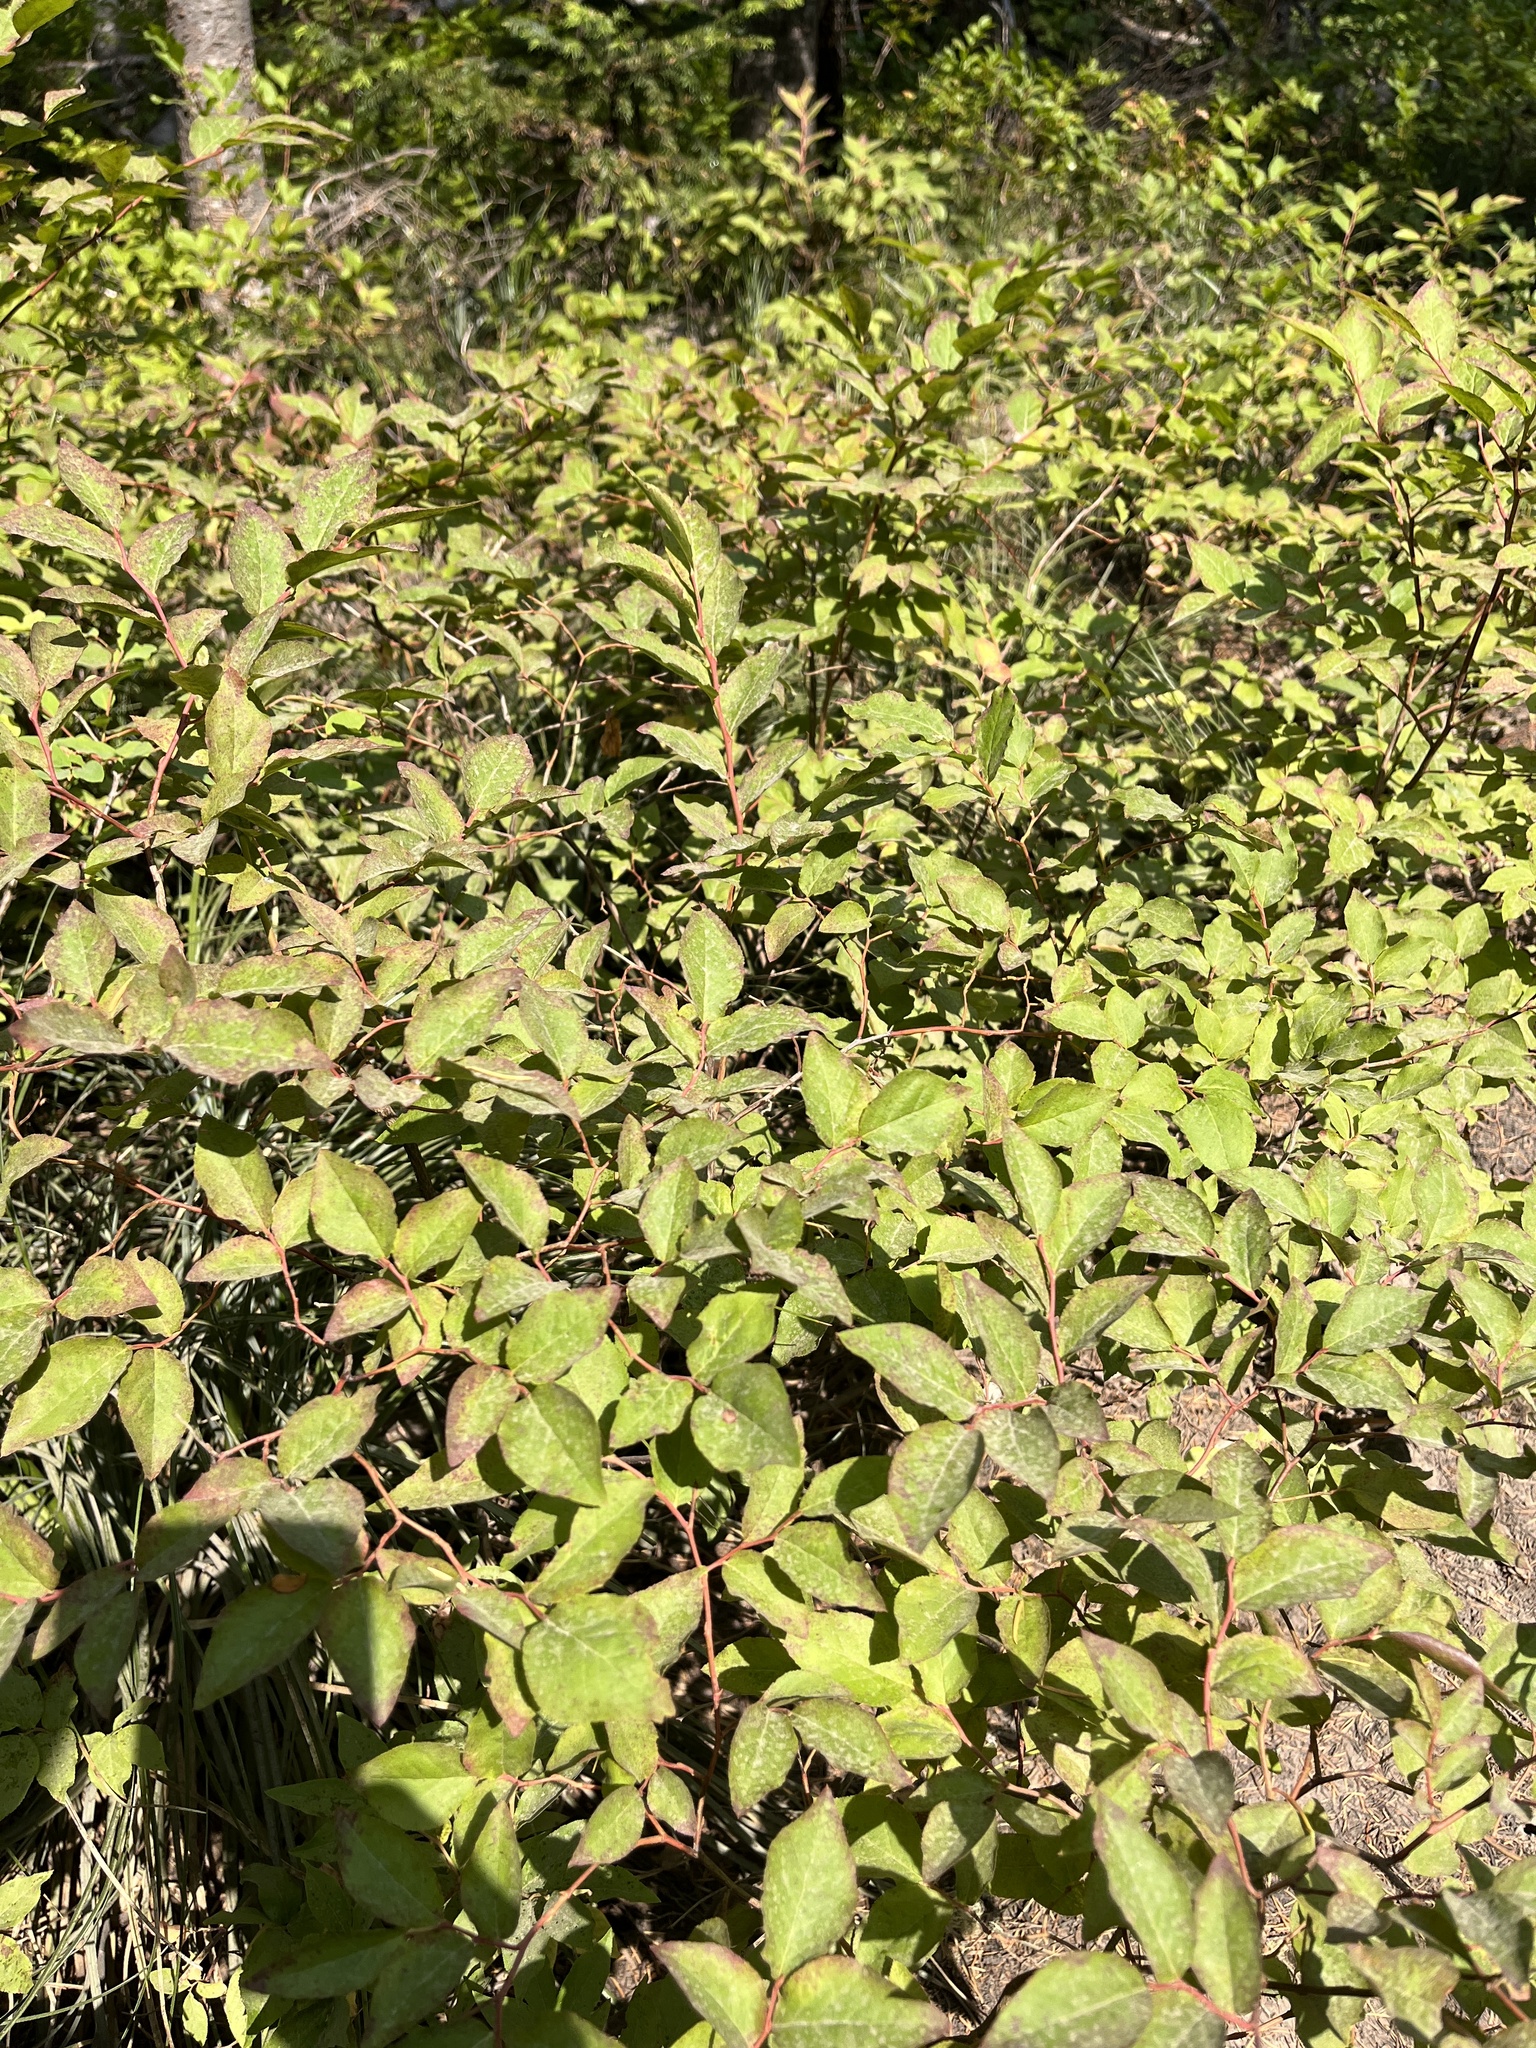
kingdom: Plantae
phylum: Tracheophyta
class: Magnoliopsida
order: Ericales
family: Ericaceae
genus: Vaccinium
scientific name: Vaccinium membranaceum
